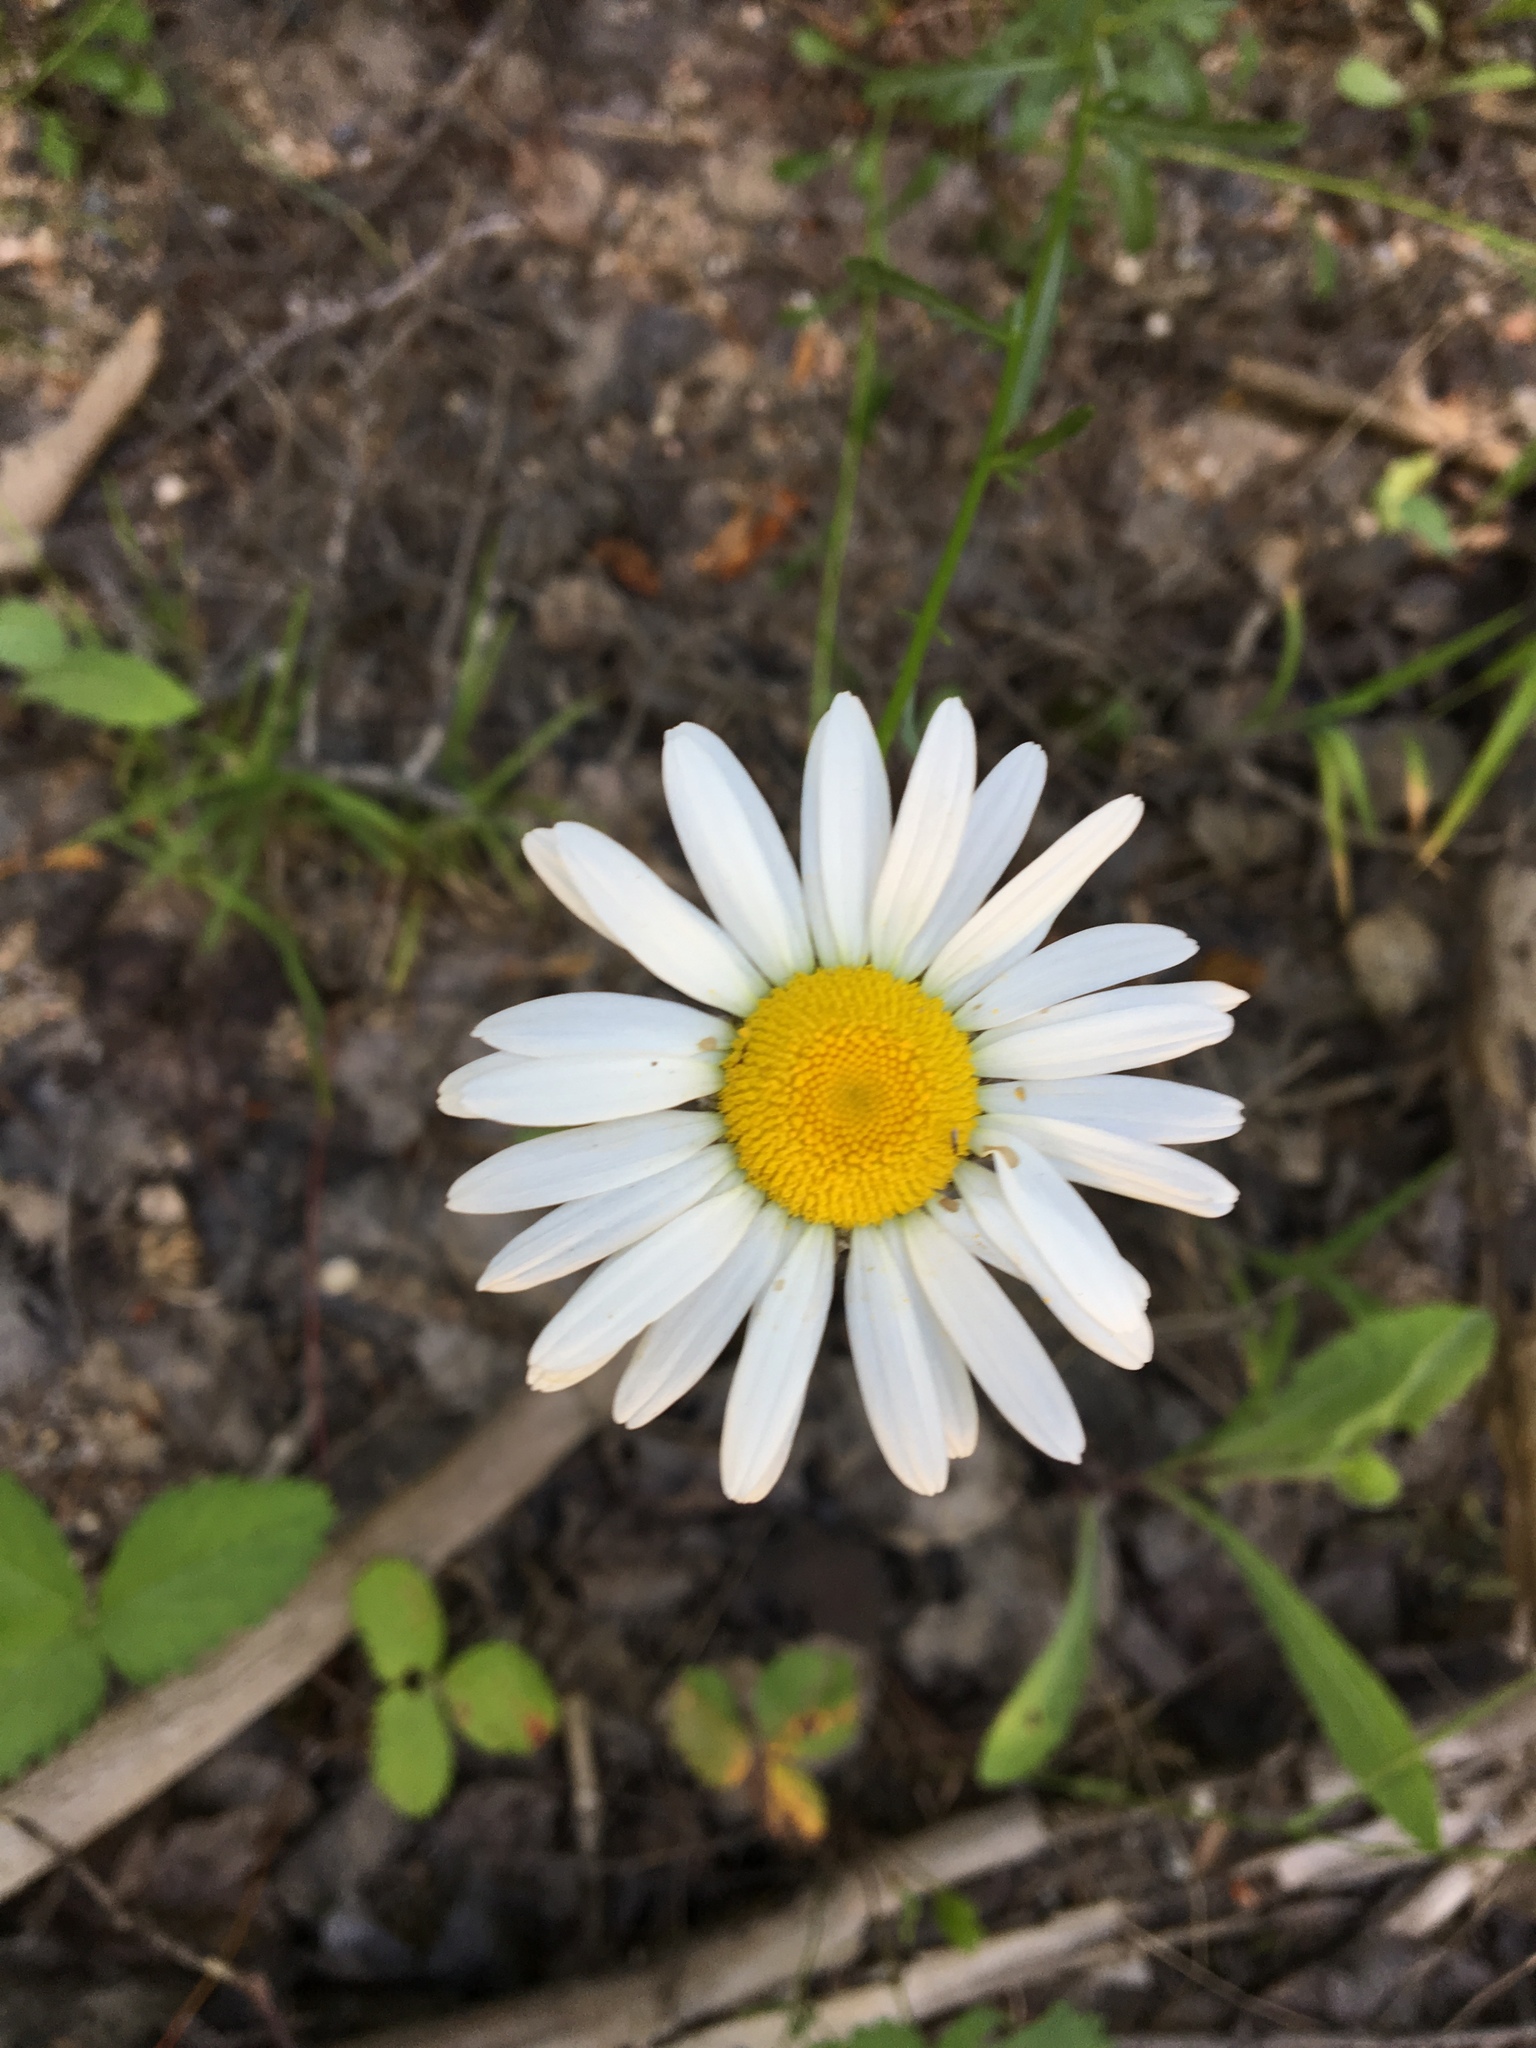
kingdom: Plantae
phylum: Tracheophyta
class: Magnoliopsida
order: Asterales
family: Asteraceae
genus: Leucanthemum
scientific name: Leucanthemum vulgare
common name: Oxeye daisy
